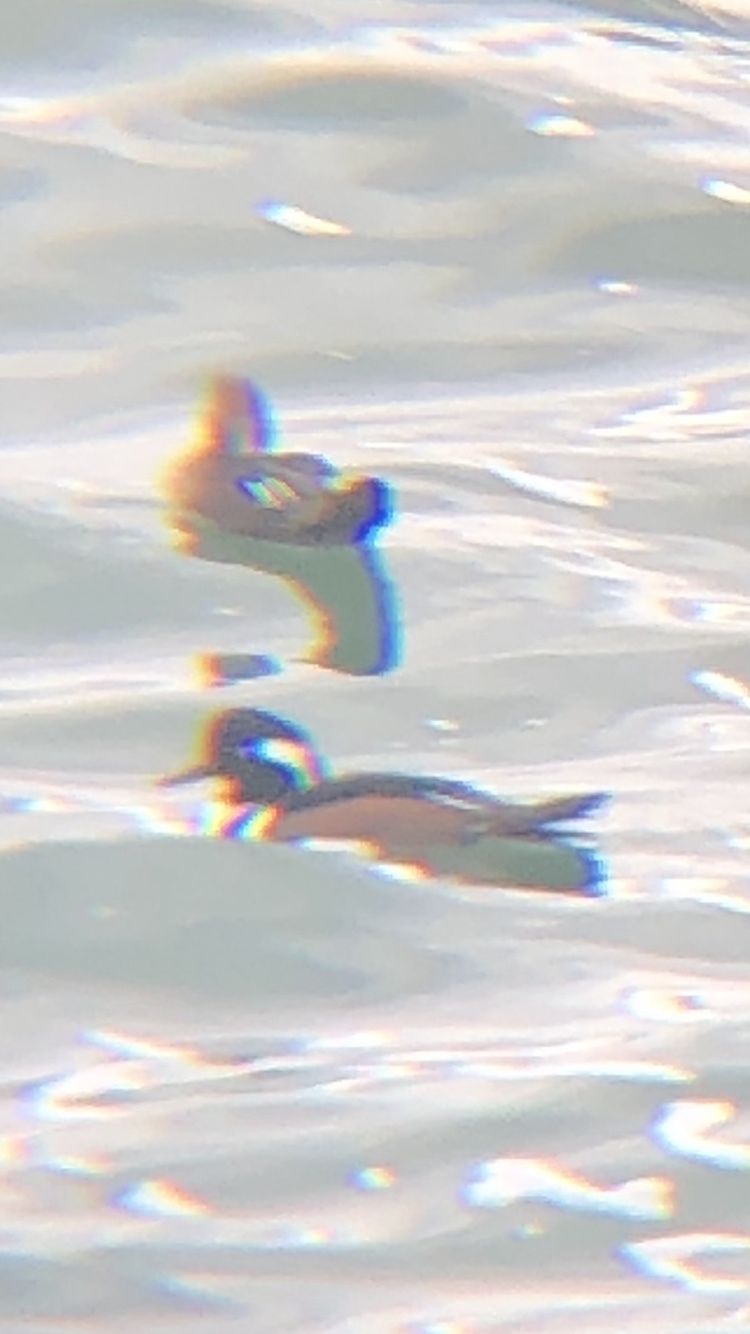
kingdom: Animalia
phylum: Chordata
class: Aves
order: Anseriformes
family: Anatidae
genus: Lophodytes
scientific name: Lophodytes cucullatus
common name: Hooded merganser
